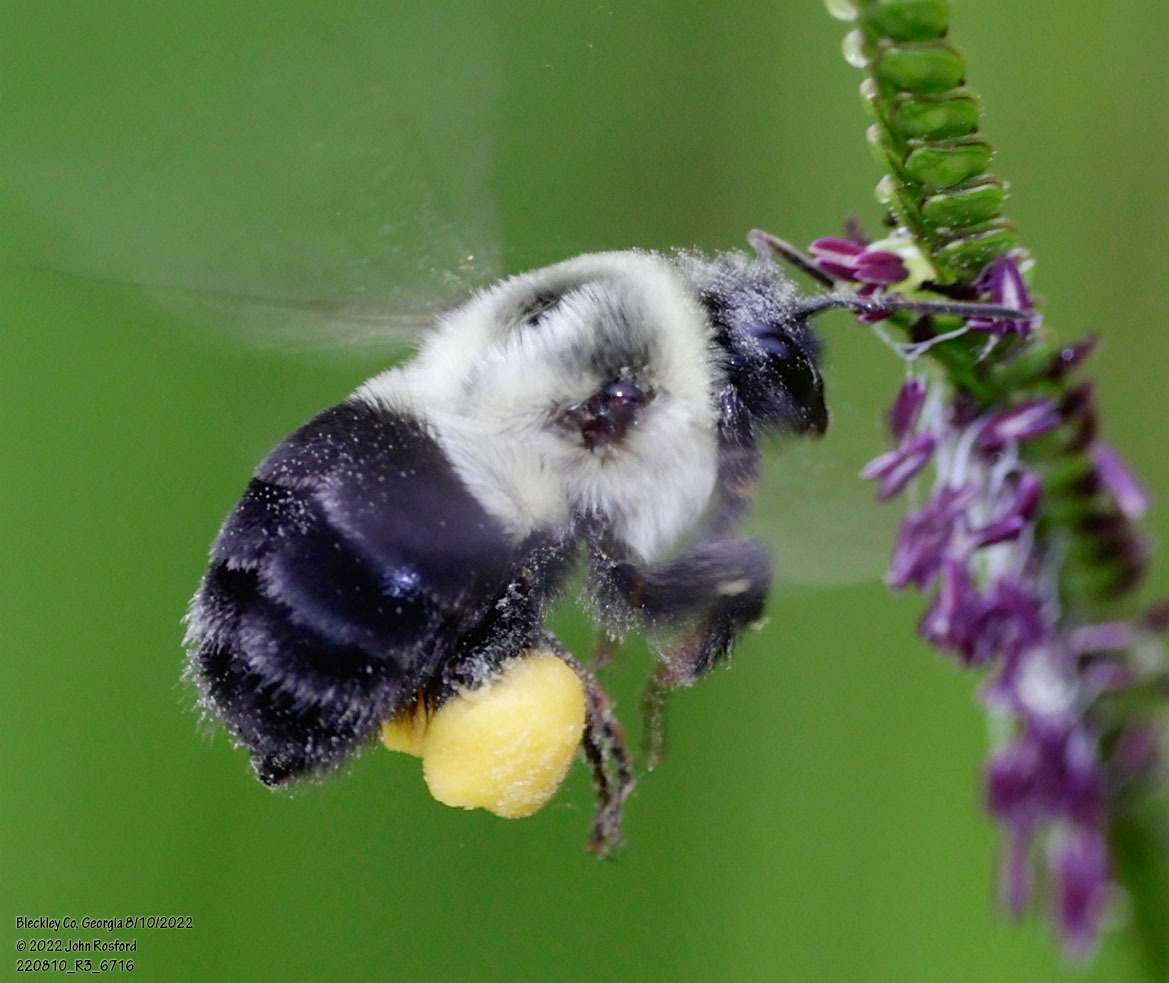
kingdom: Animalia
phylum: Arthropoda
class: Insecta
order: Hymenoptera
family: Apidae
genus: Bombus
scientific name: Bombus impatiens
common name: Common eastern bumble bee
